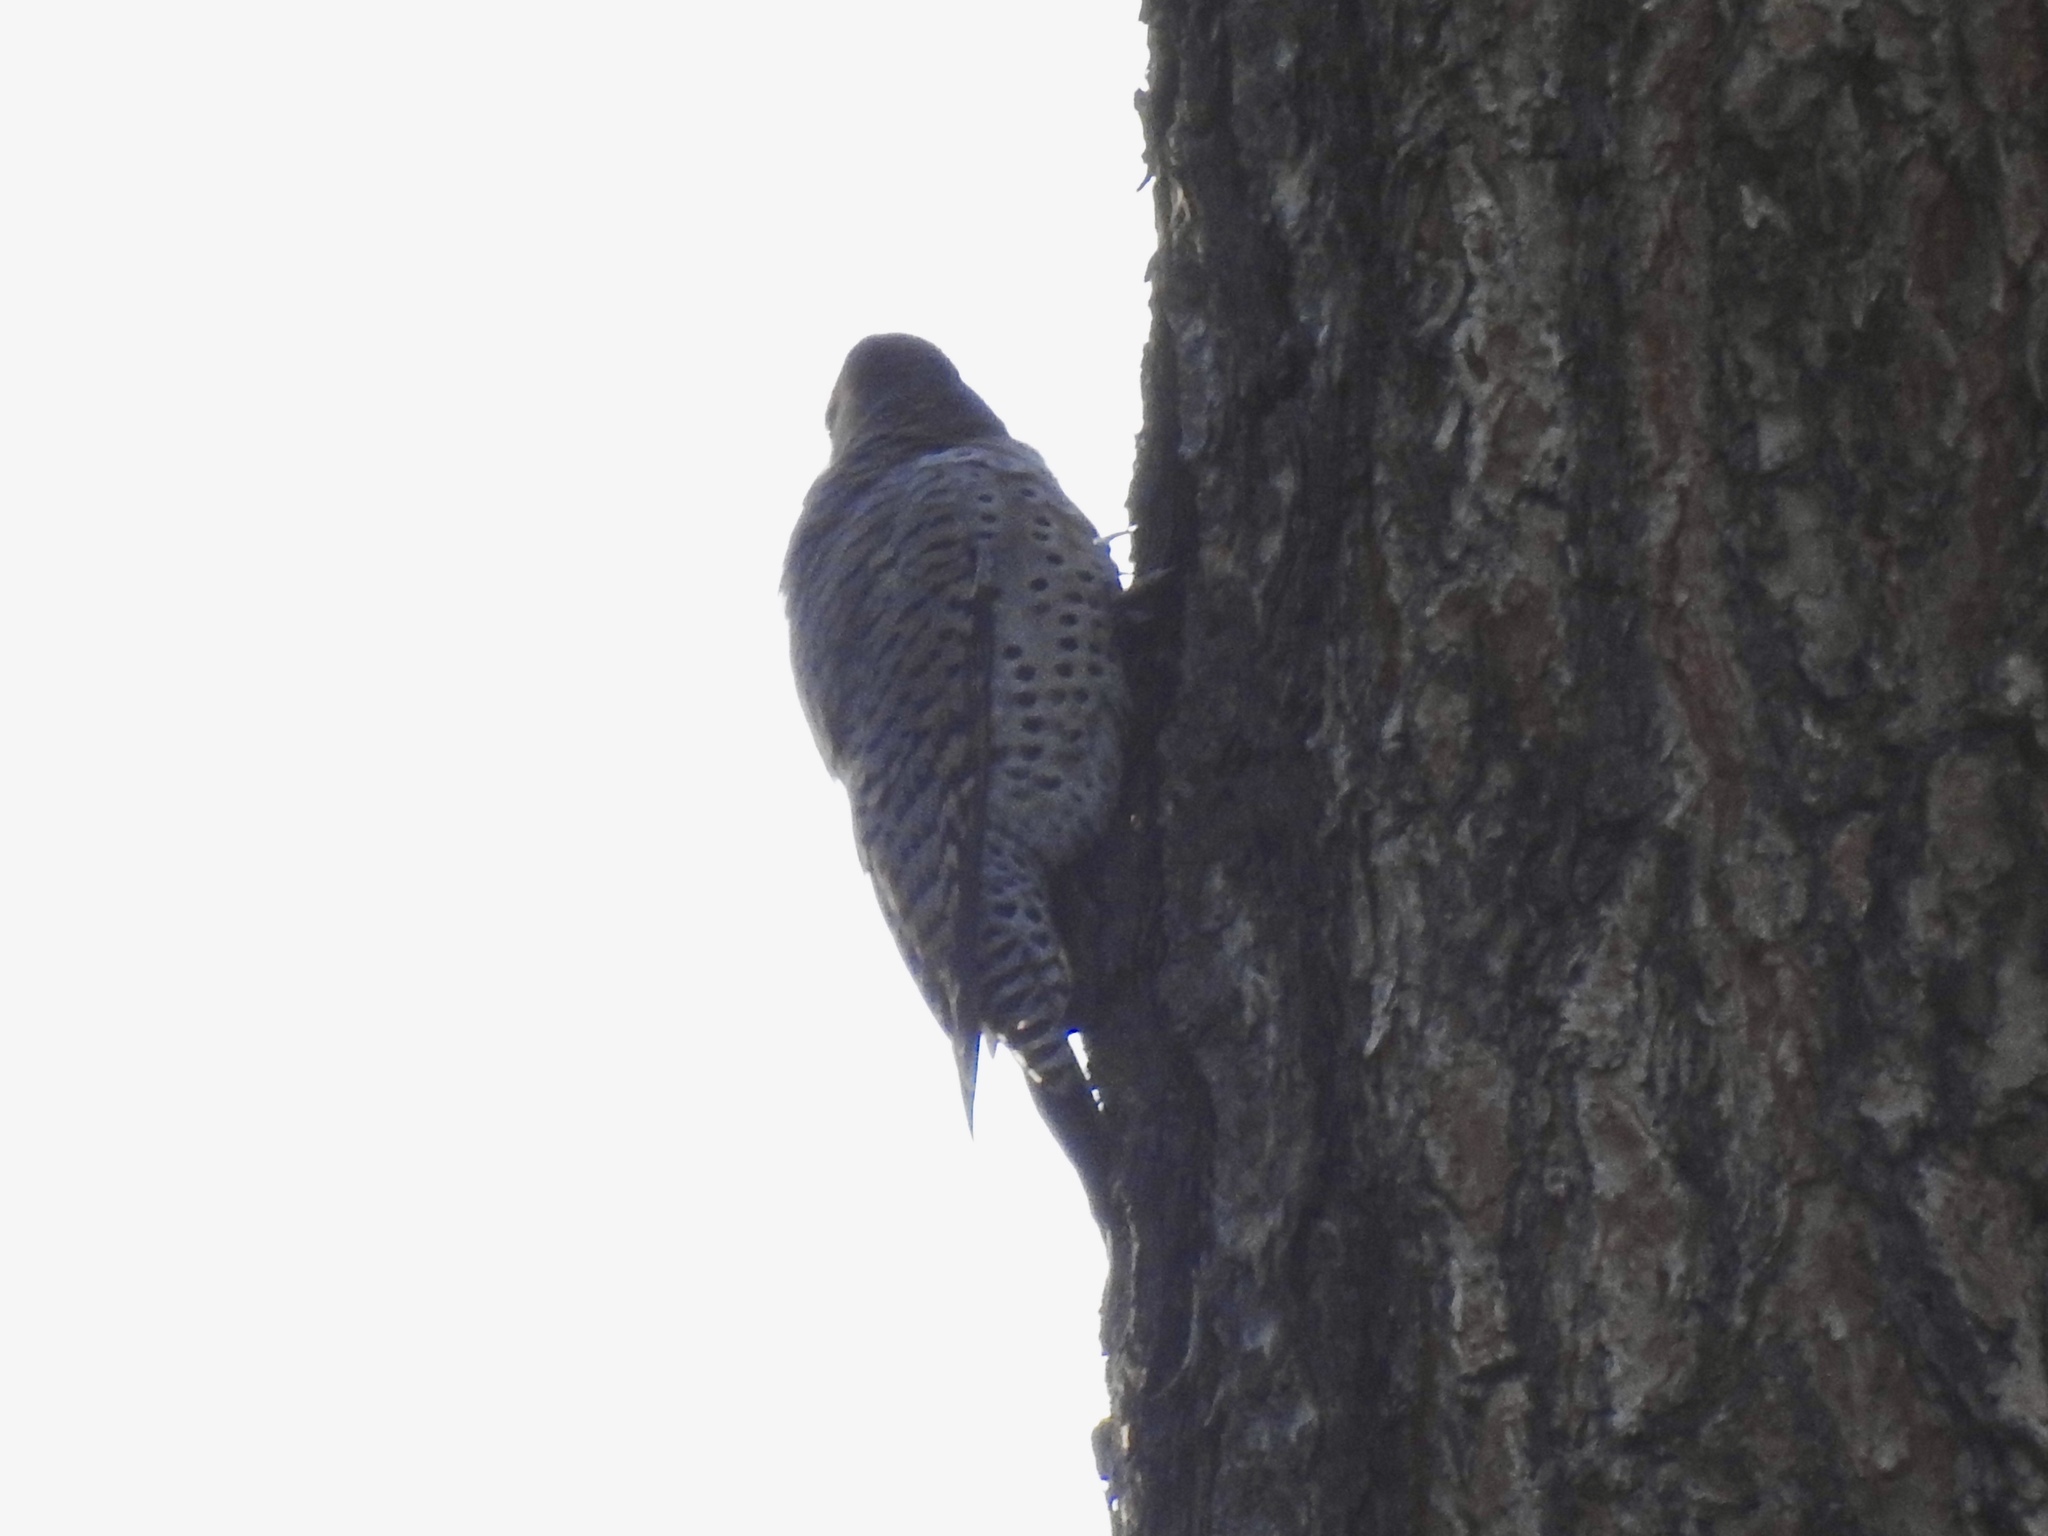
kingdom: Animalia
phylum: Chordata
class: Aves
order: Piciformes
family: Picidae
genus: Colaptes
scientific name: Colaptes auratus
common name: Northern flicker
